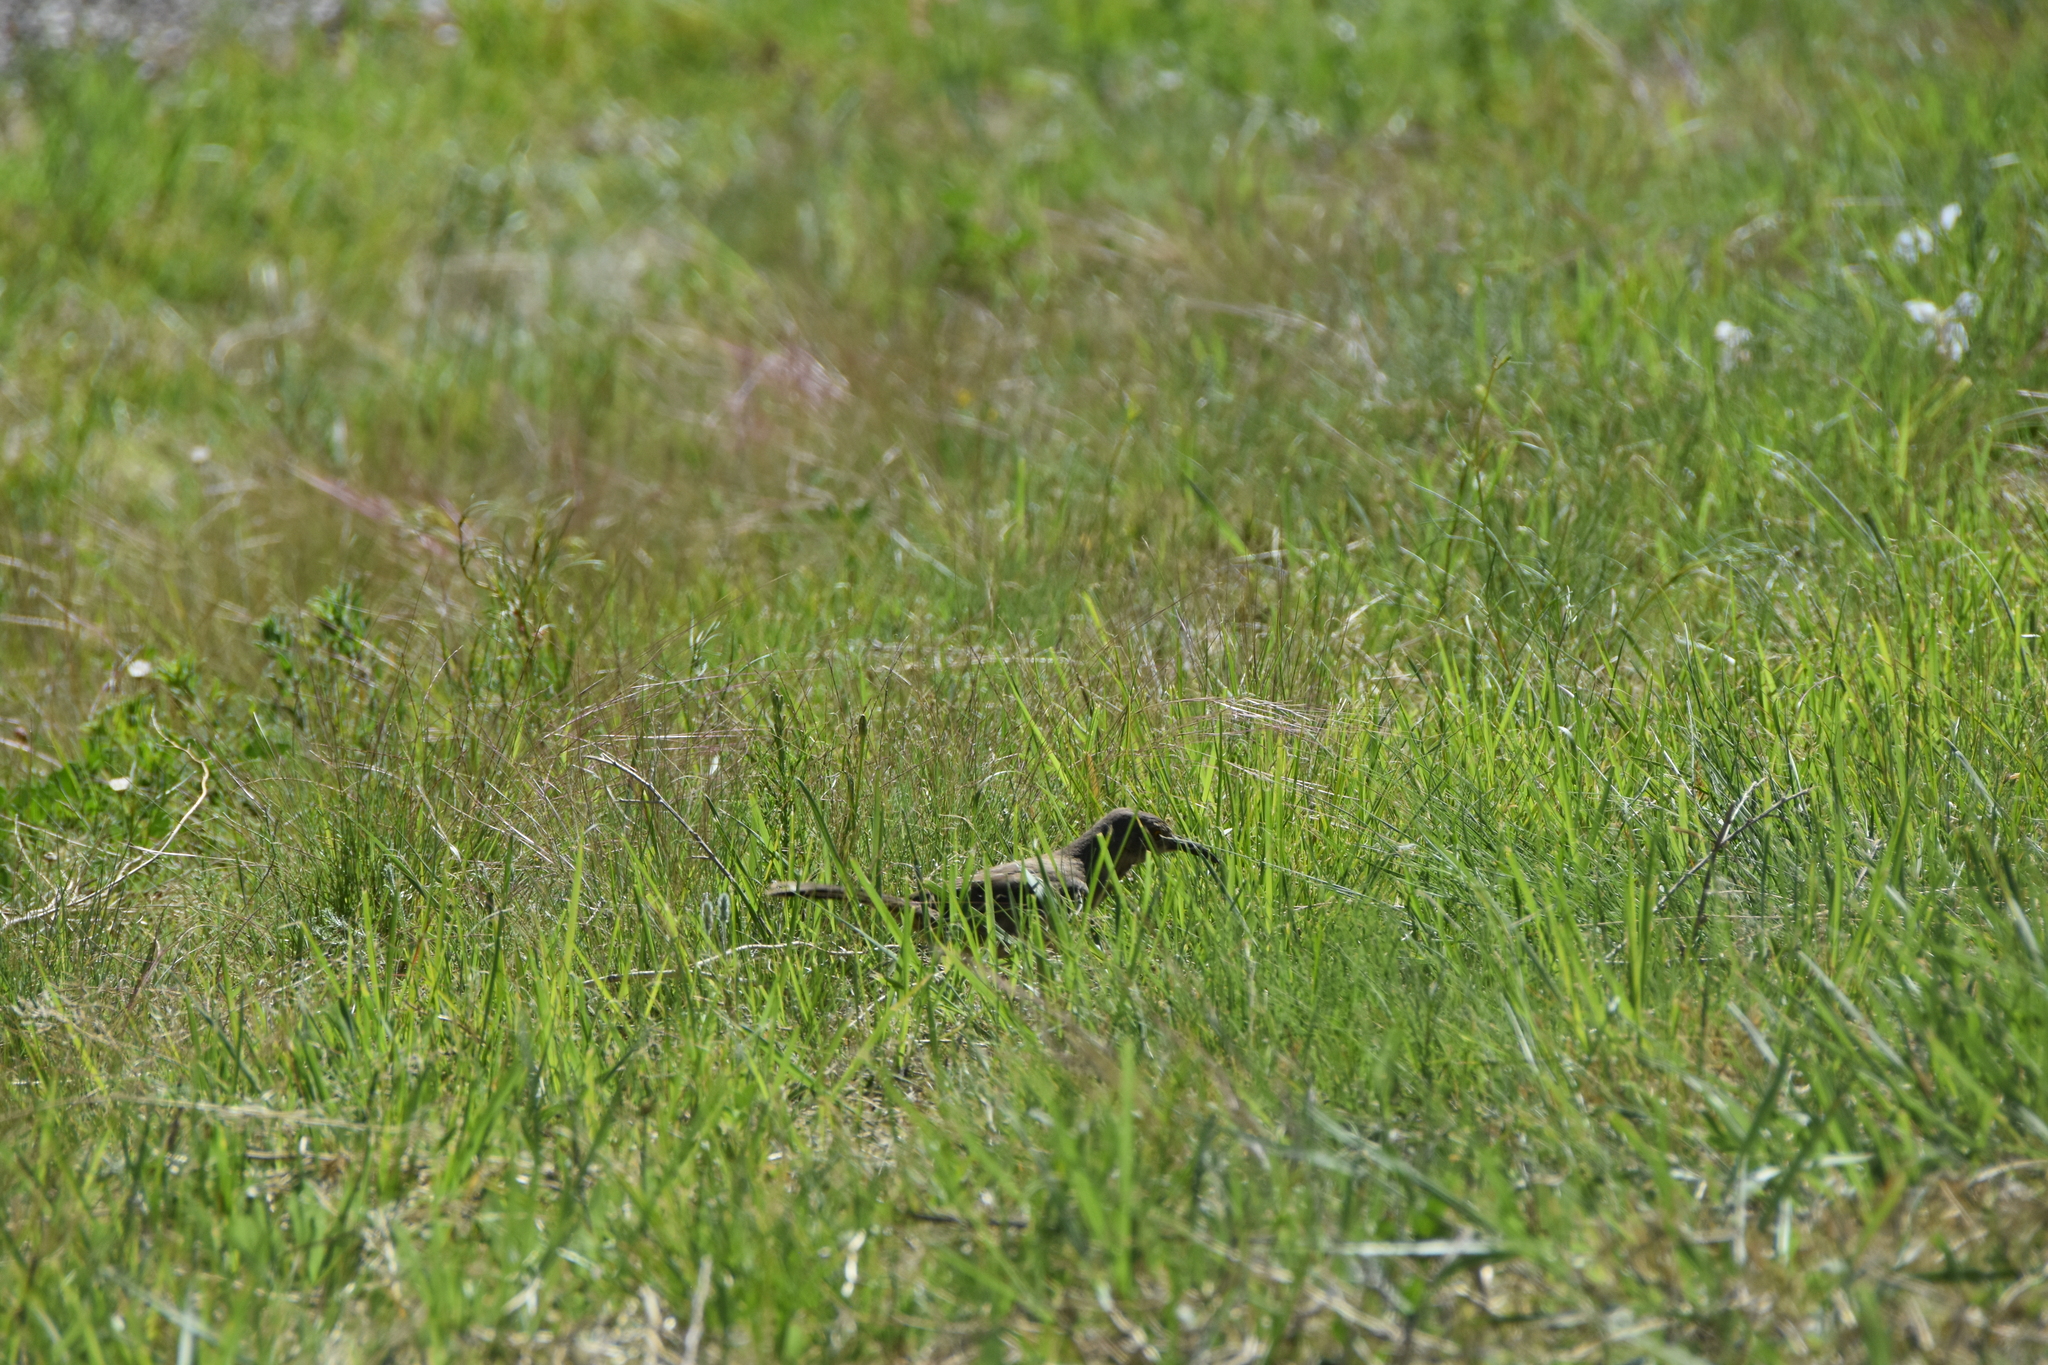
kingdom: Animalia
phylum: Chordata
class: Aves
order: Passeriformes
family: Mimidae
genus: Toxostoma
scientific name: Toxostoma curvirostre
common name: Curve-billed thrasher
